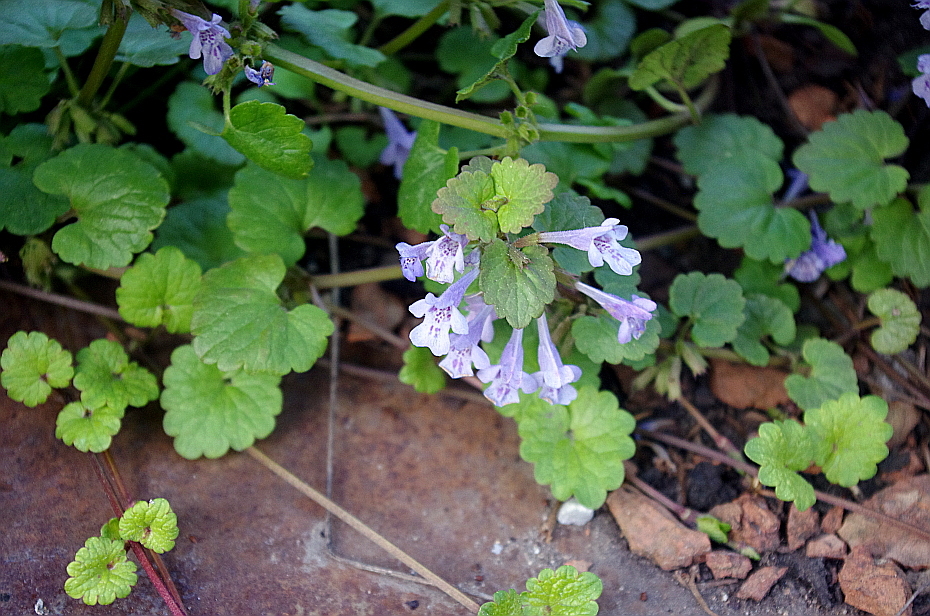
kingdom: Plantae
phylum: Tracheophyta
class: Magnoliopsida
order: Lamiales
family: Lamiaceae
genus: Glechoma
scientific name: Glechoma hederacea
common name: Ground ivy
